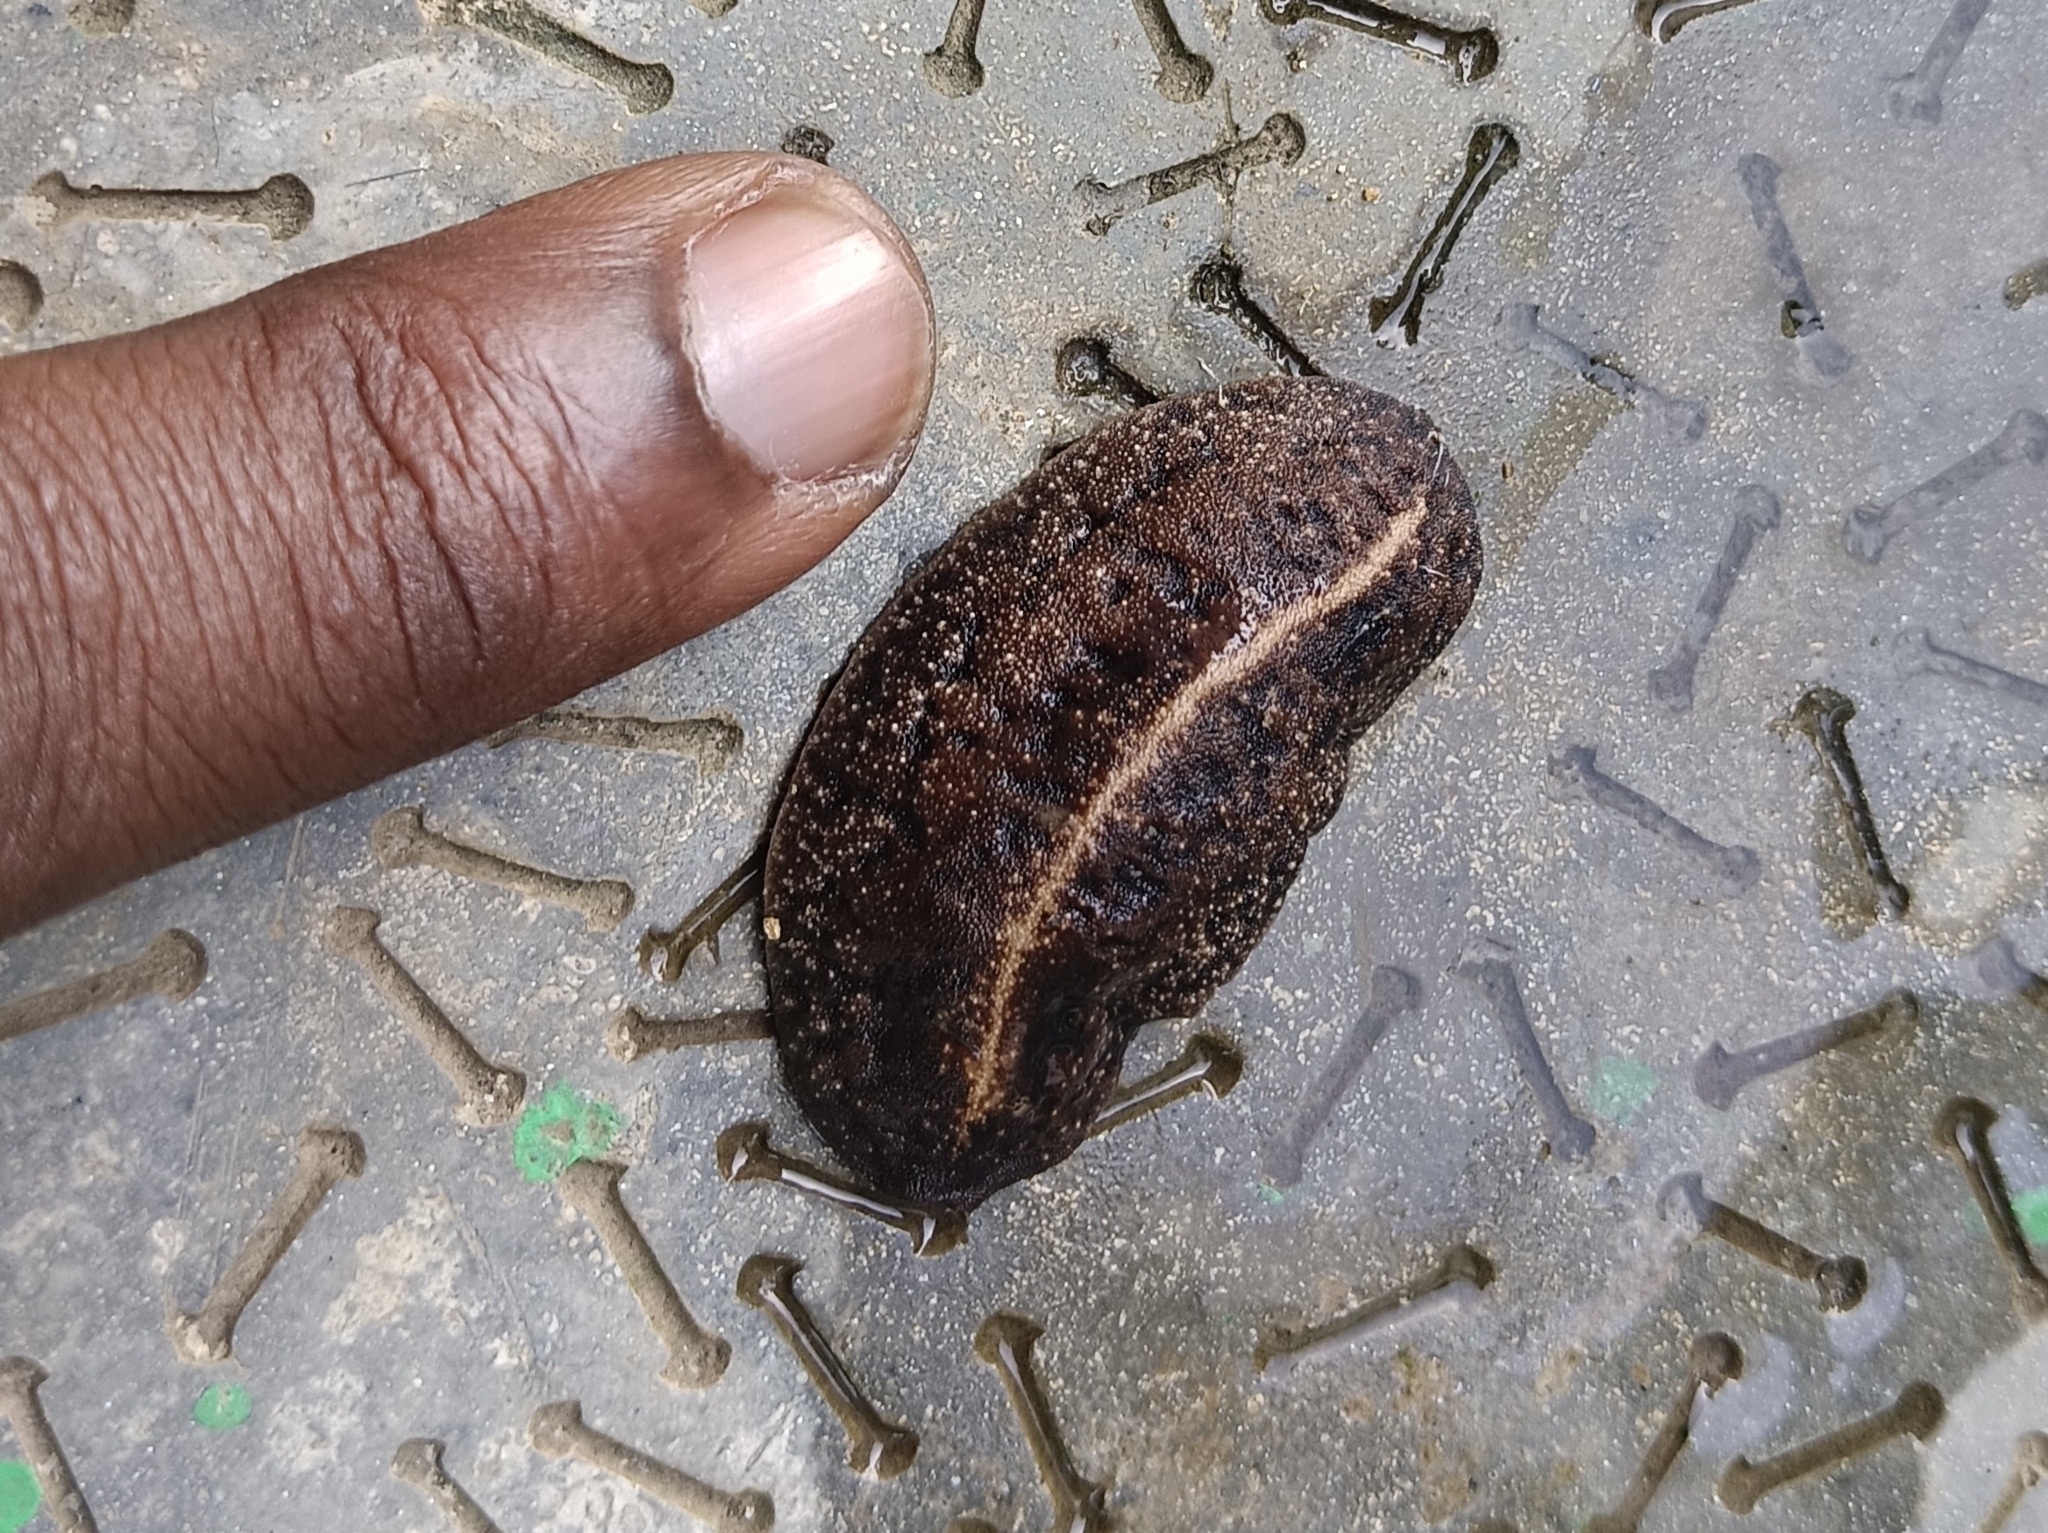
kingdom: Animalia
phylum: Mollusca
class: Gastropoda
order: Systellommatophora
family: Veronicellidae
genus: Laevicaulis
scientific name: Laevicaulis alte
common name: Tropical leatherleaf
